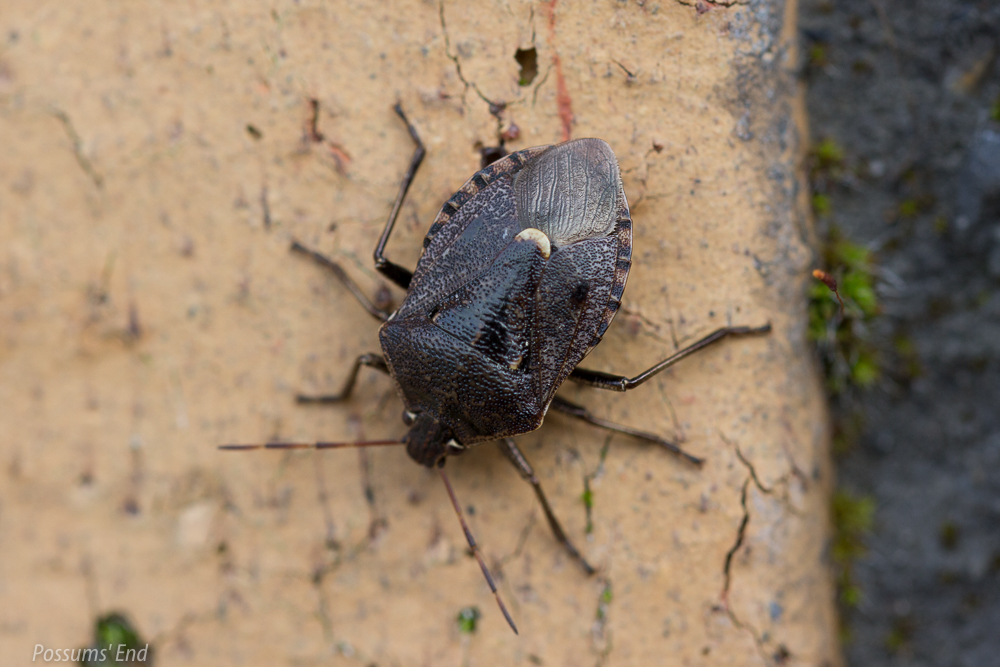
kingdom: Animalia
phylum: Arthropoda
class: Insecta
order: Hemiptera
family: Pentatomidae
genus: Cermatulus
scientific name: Cermatulus nasalis
